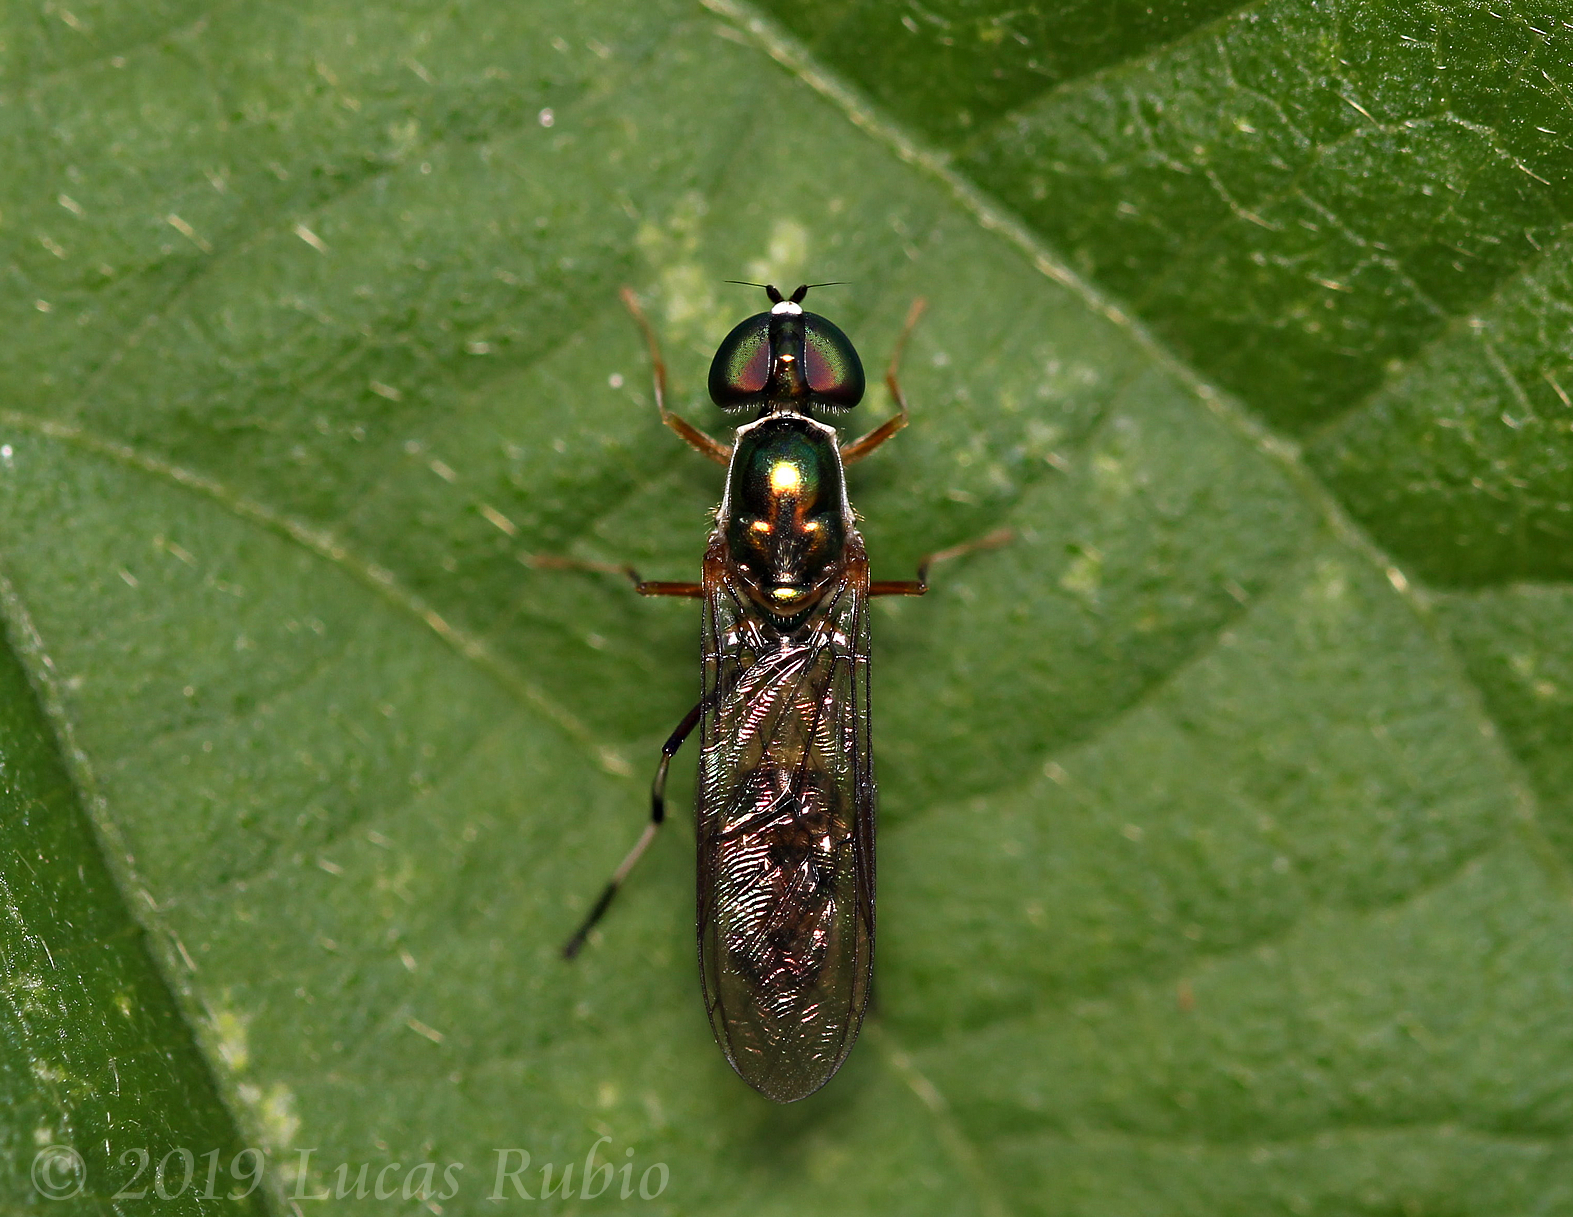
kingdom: Animalia
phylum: Arthropoda
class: Insecta
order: Diptera
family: Stratiomyidae
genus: Sargus
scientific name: Sargus fasciatus
